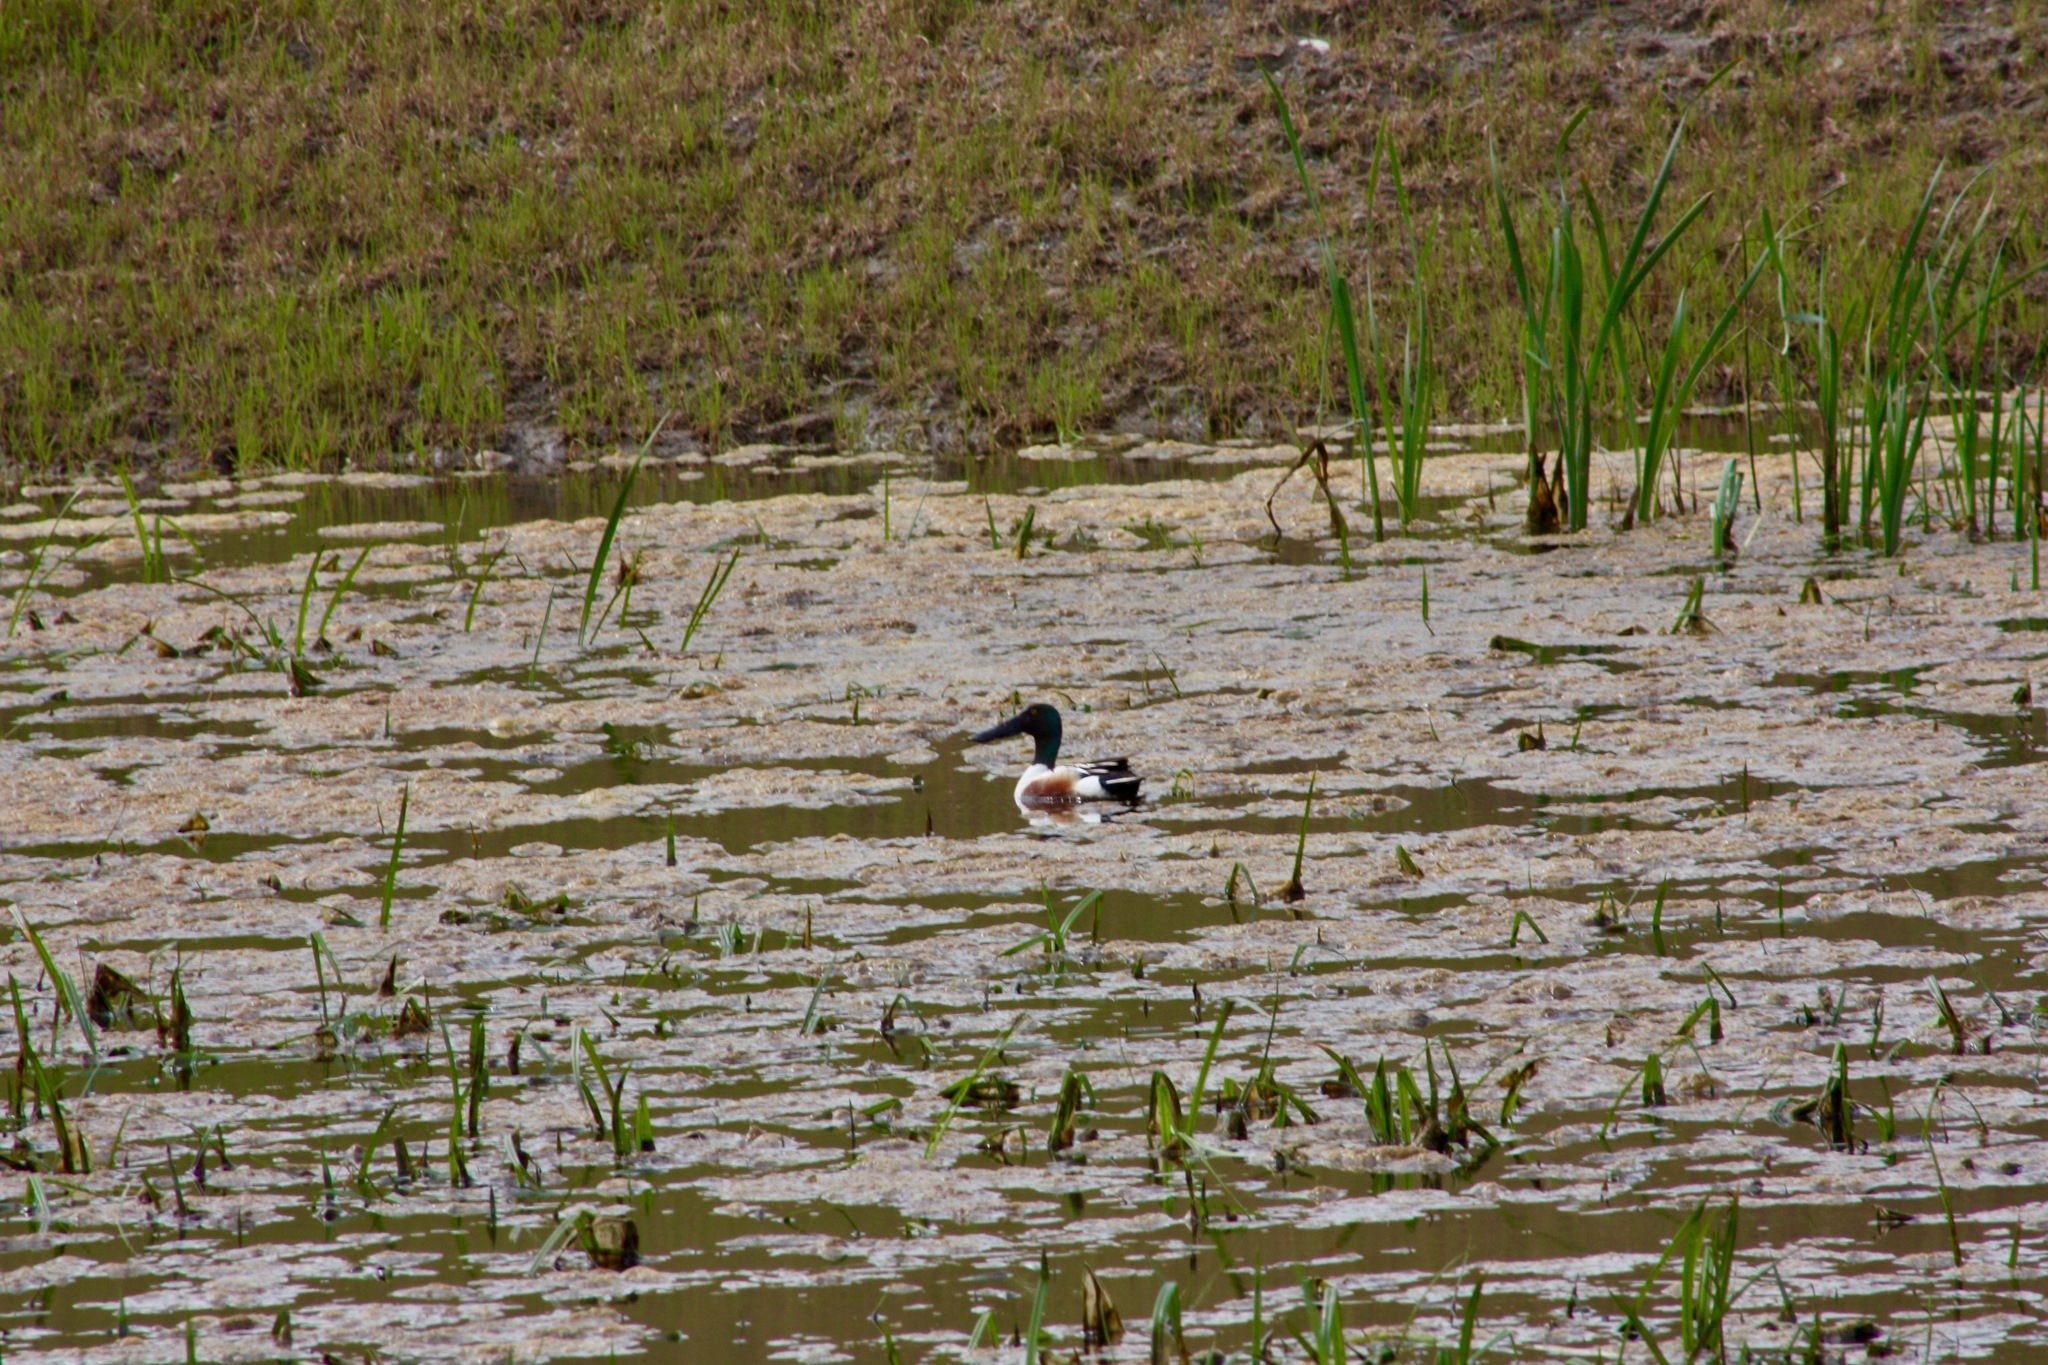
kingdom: Animalia
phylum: Chordata
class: Aves
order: Anseriformes
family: Anatidae
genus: Spatula
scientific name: Spatula clypeata
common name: Northern shoveler
